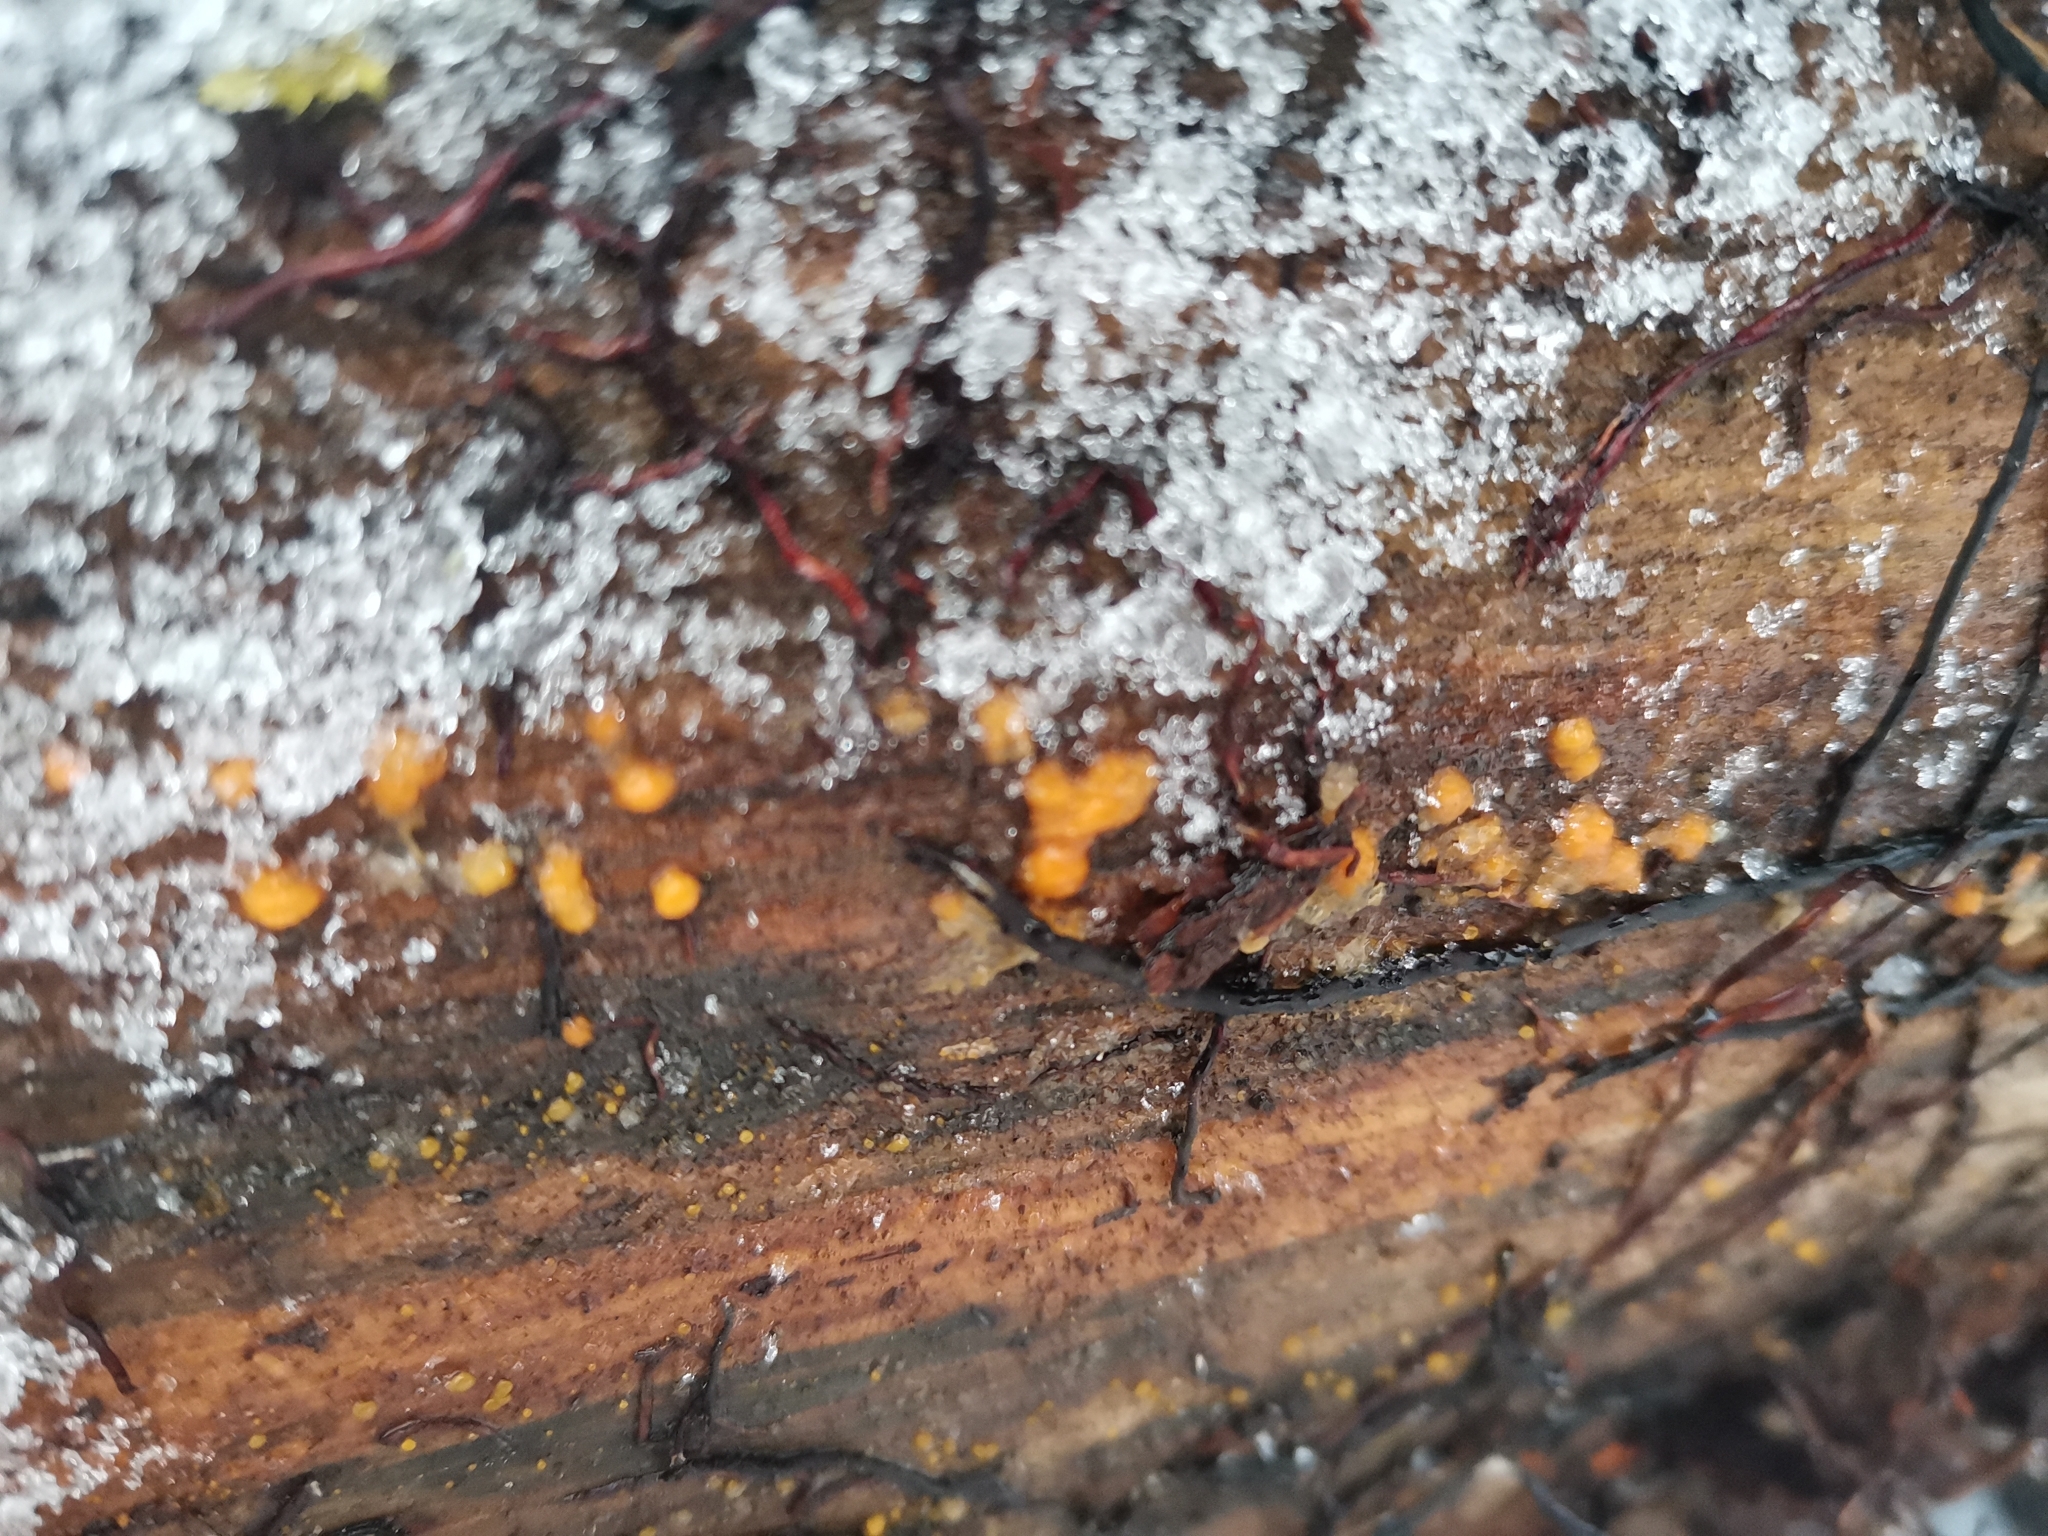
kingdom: Fungi
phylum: Basidiomycota
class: Dacrymycetes
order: Dacrymycetales
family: Dacrymycetaceae
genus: Dacrymyces
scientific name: Dacrymyces stillatus
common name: Common jelly spot
